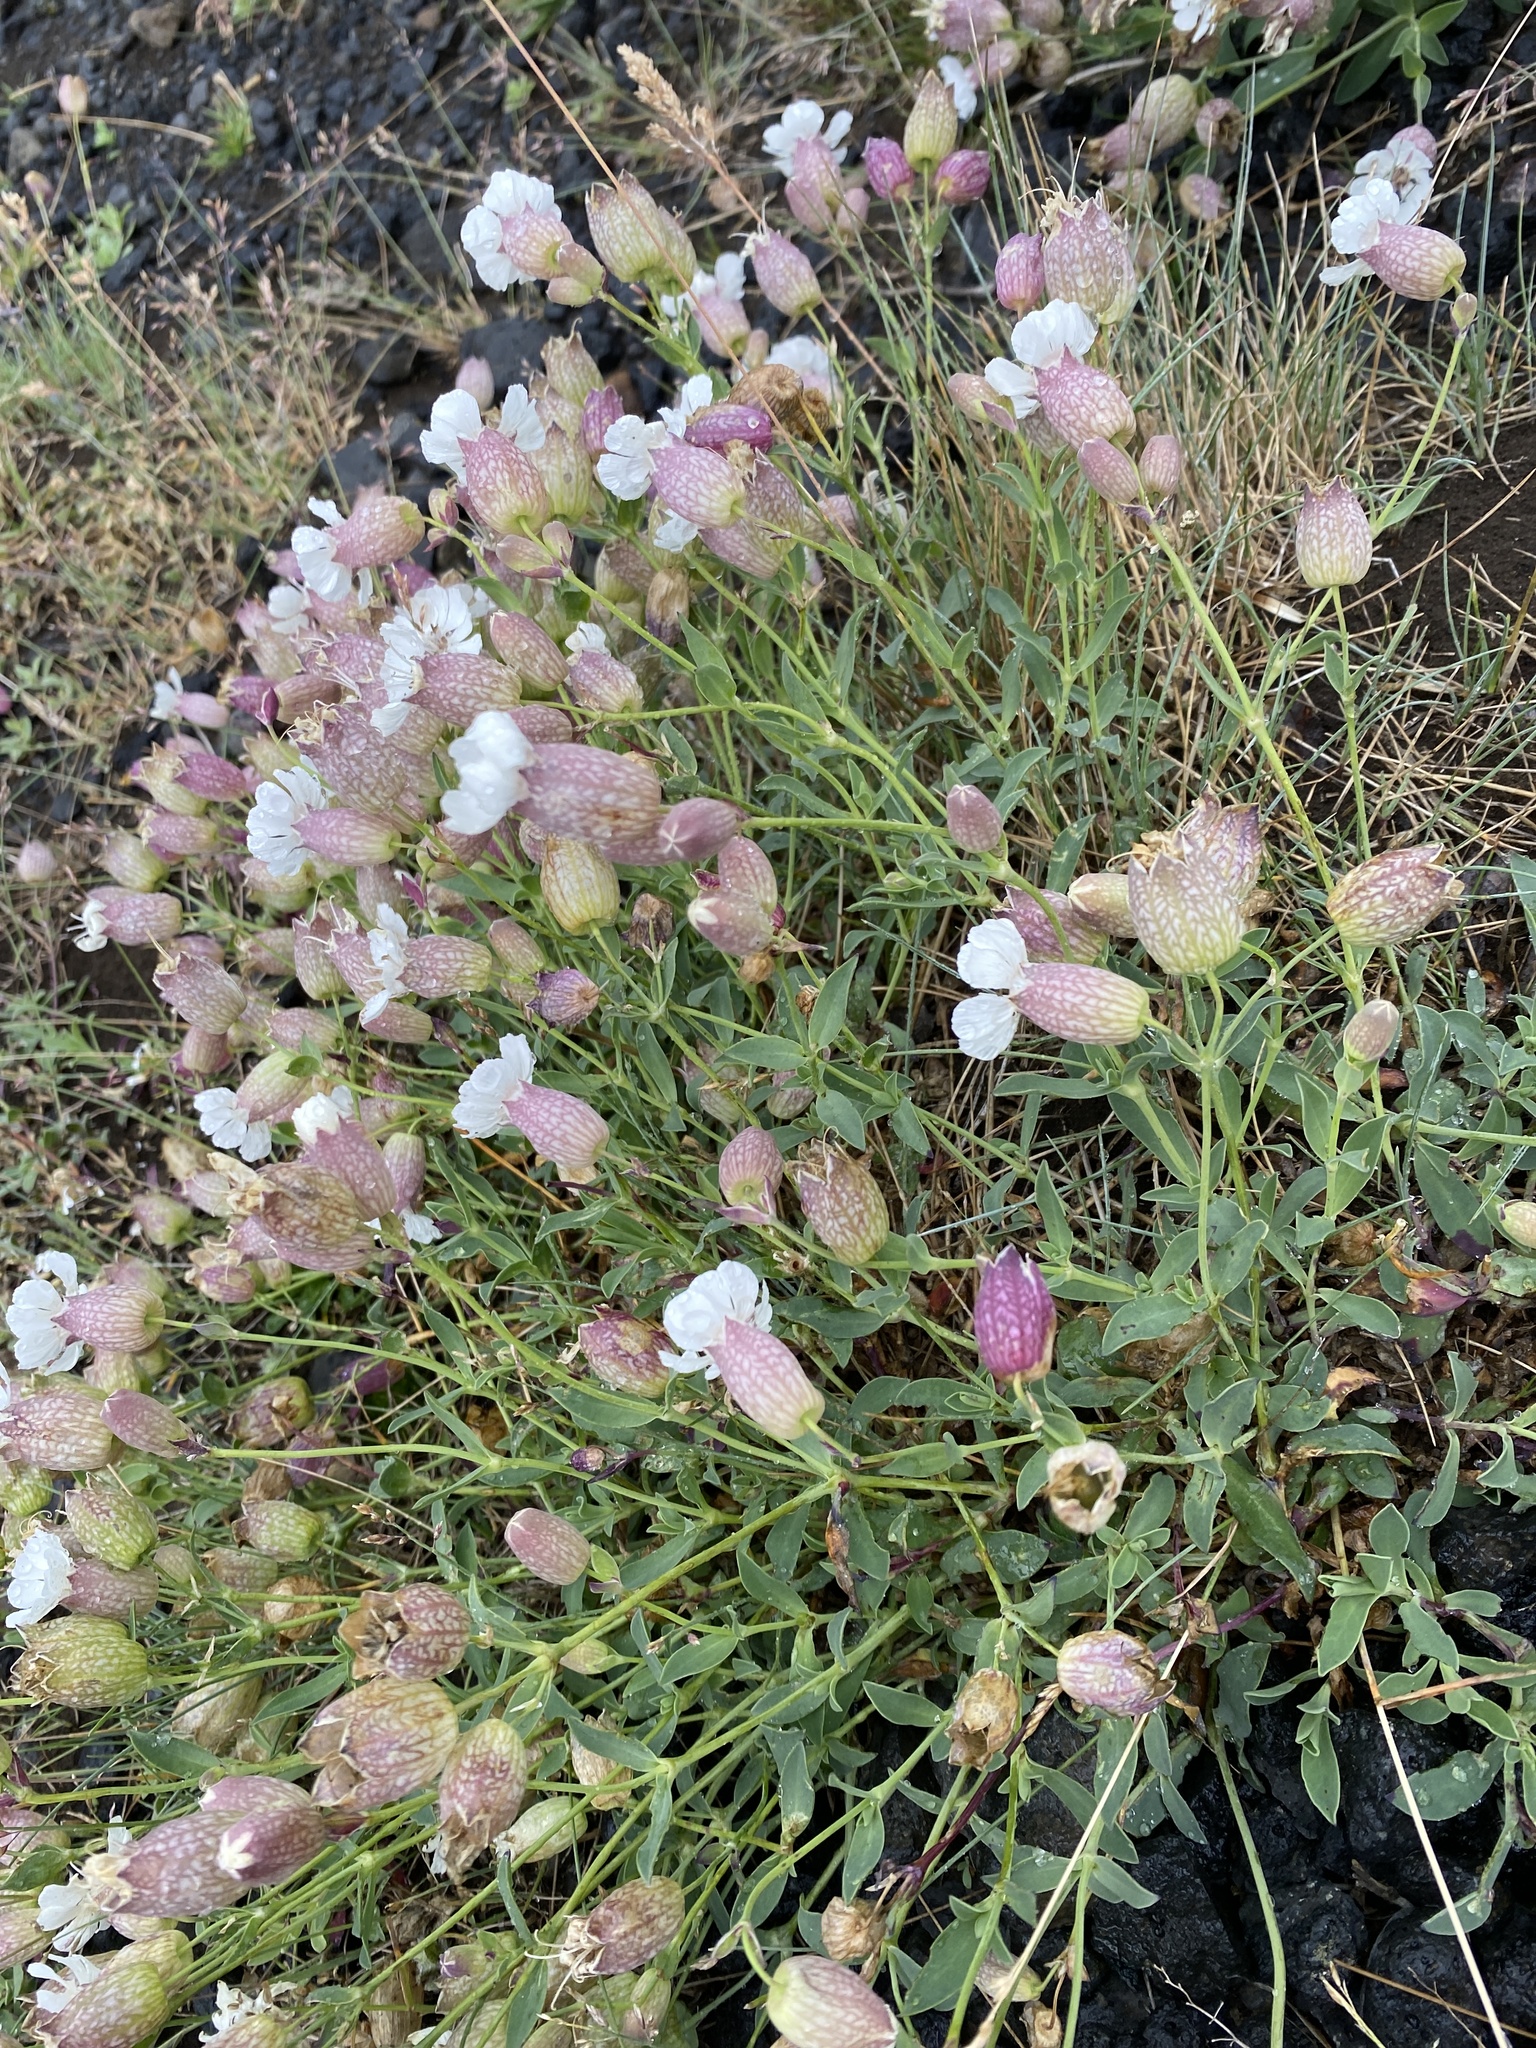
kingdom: Plantae
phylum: Tracheophyta
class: Magnoliopsida
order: Caryophyllales
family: Caryophyllaceae
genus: Silene
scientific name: Silene uniflora
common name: Sea campion
